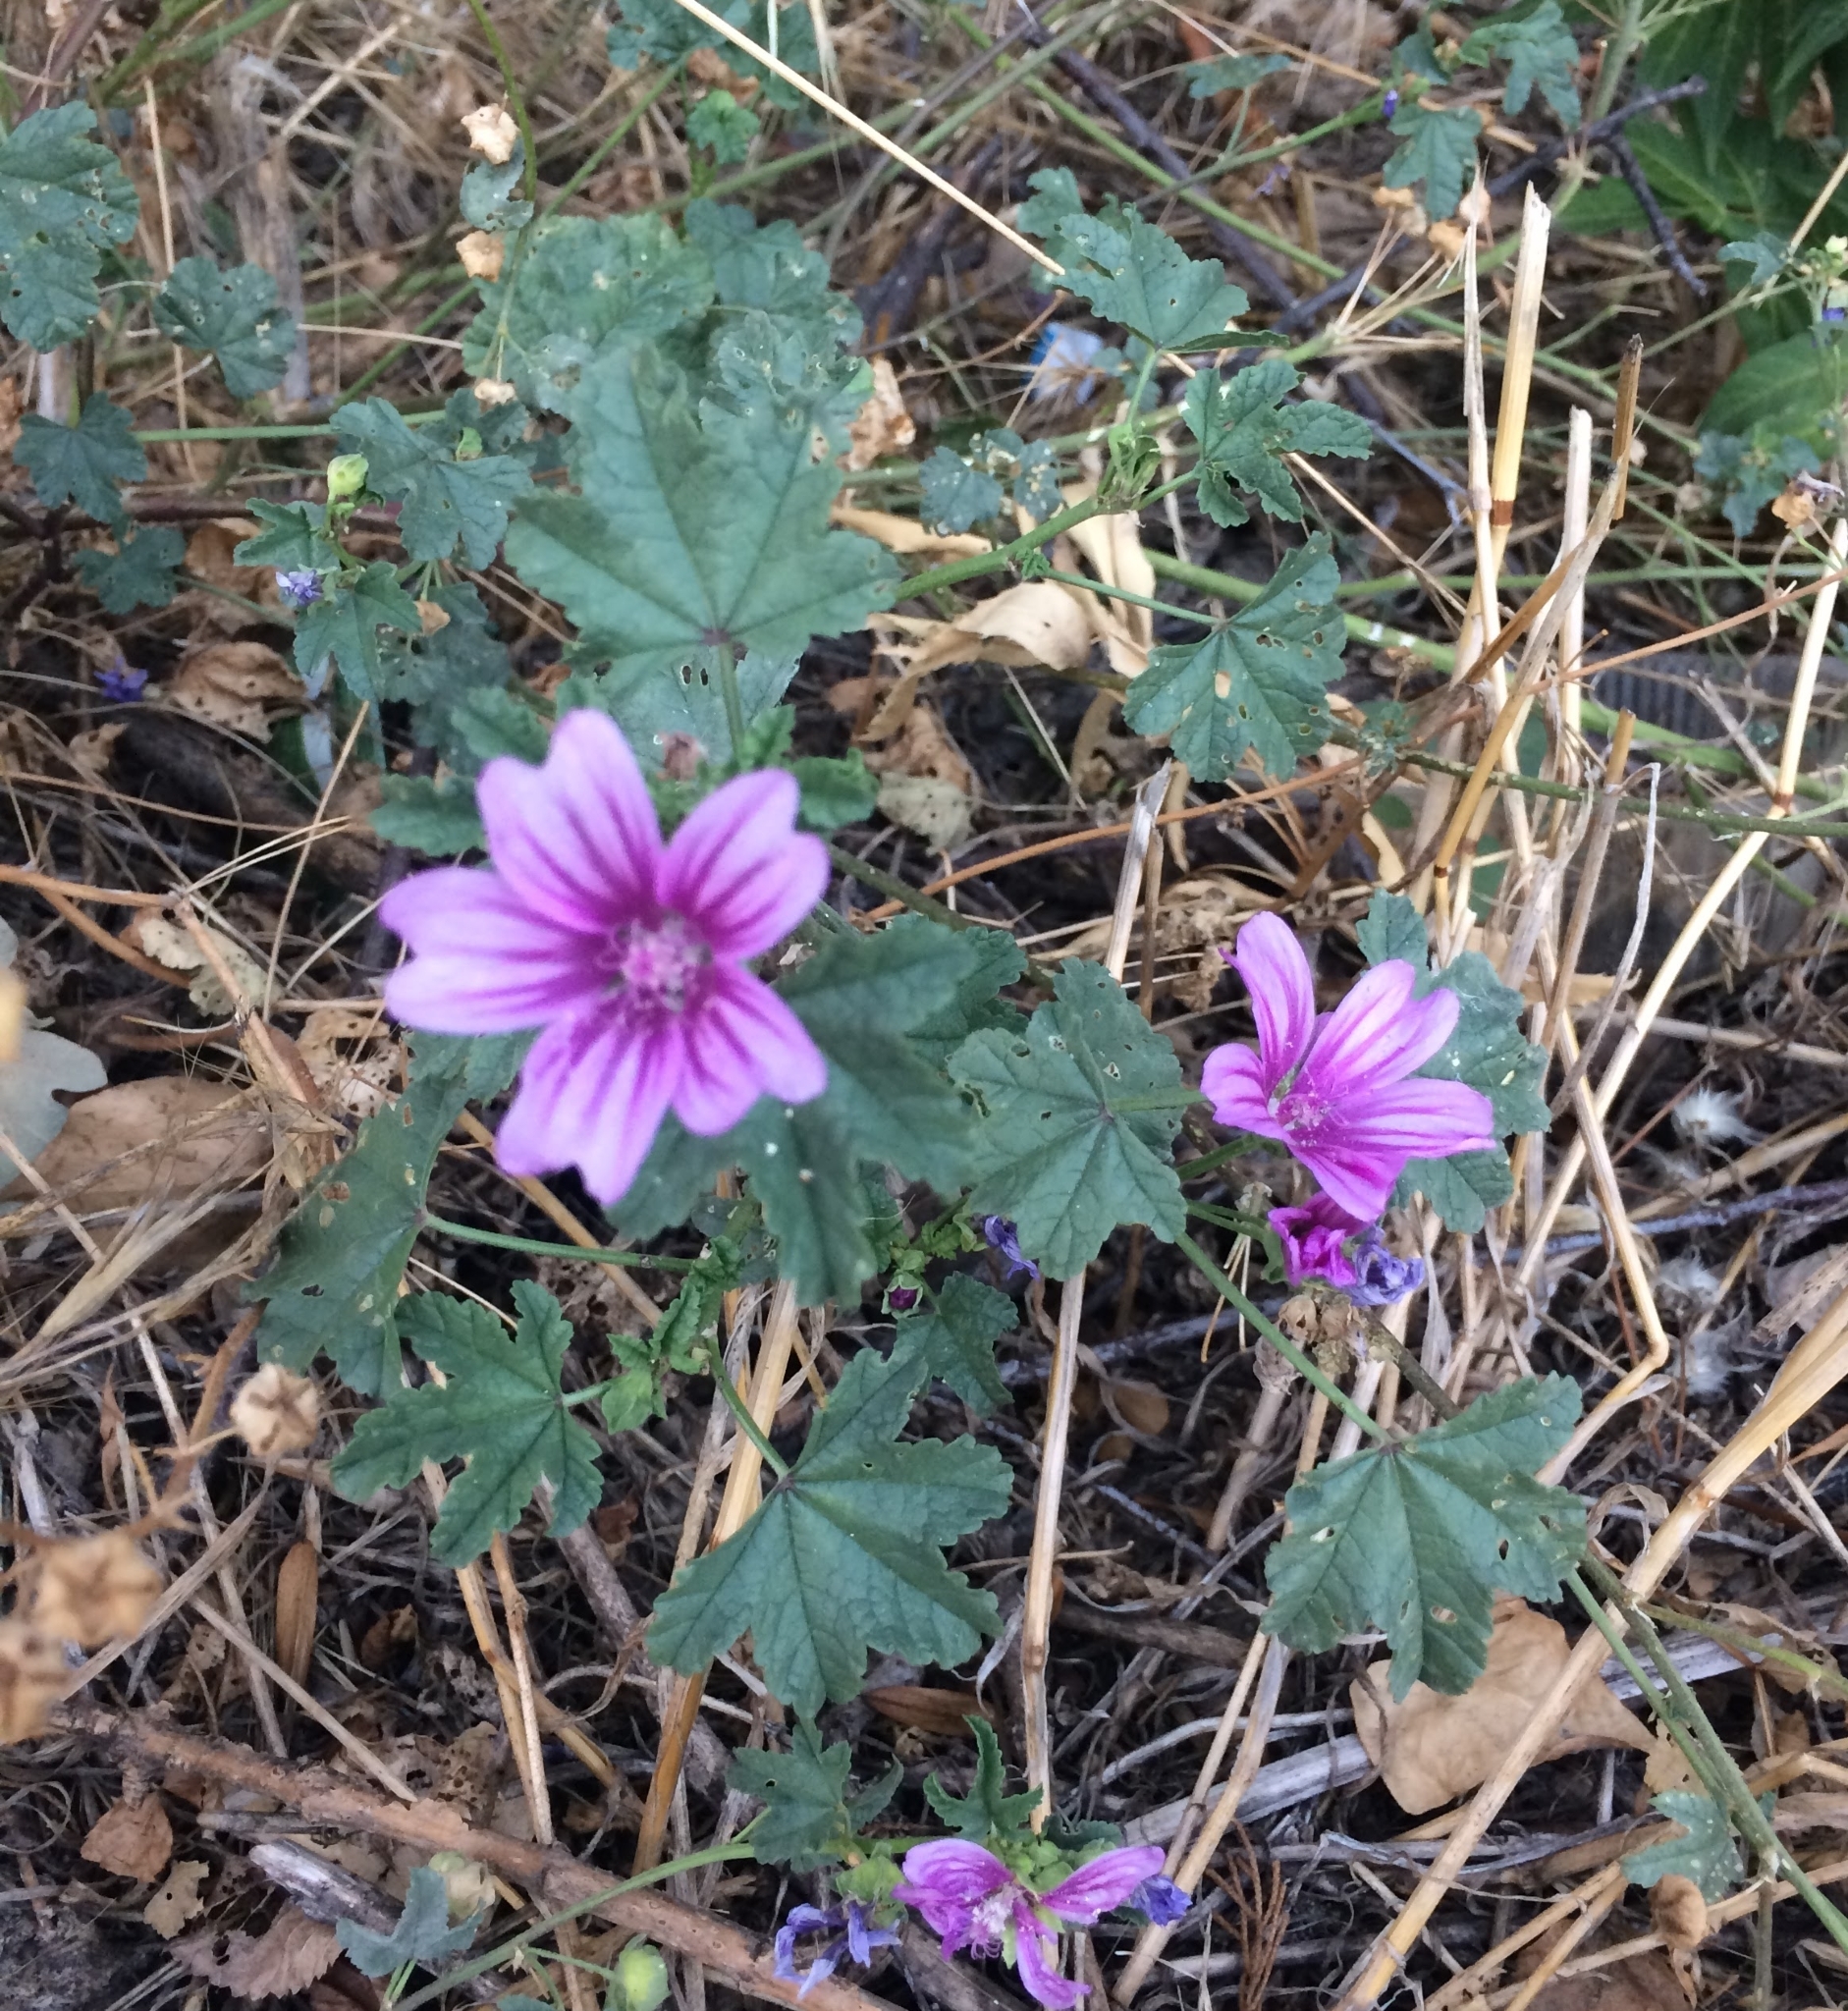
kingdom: Plantae
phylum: Tracheophyta
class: Magnoliopsida
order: Malvales
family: Malvaceae
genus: Malva
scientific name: Malva sylvestris
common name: Common mallow
